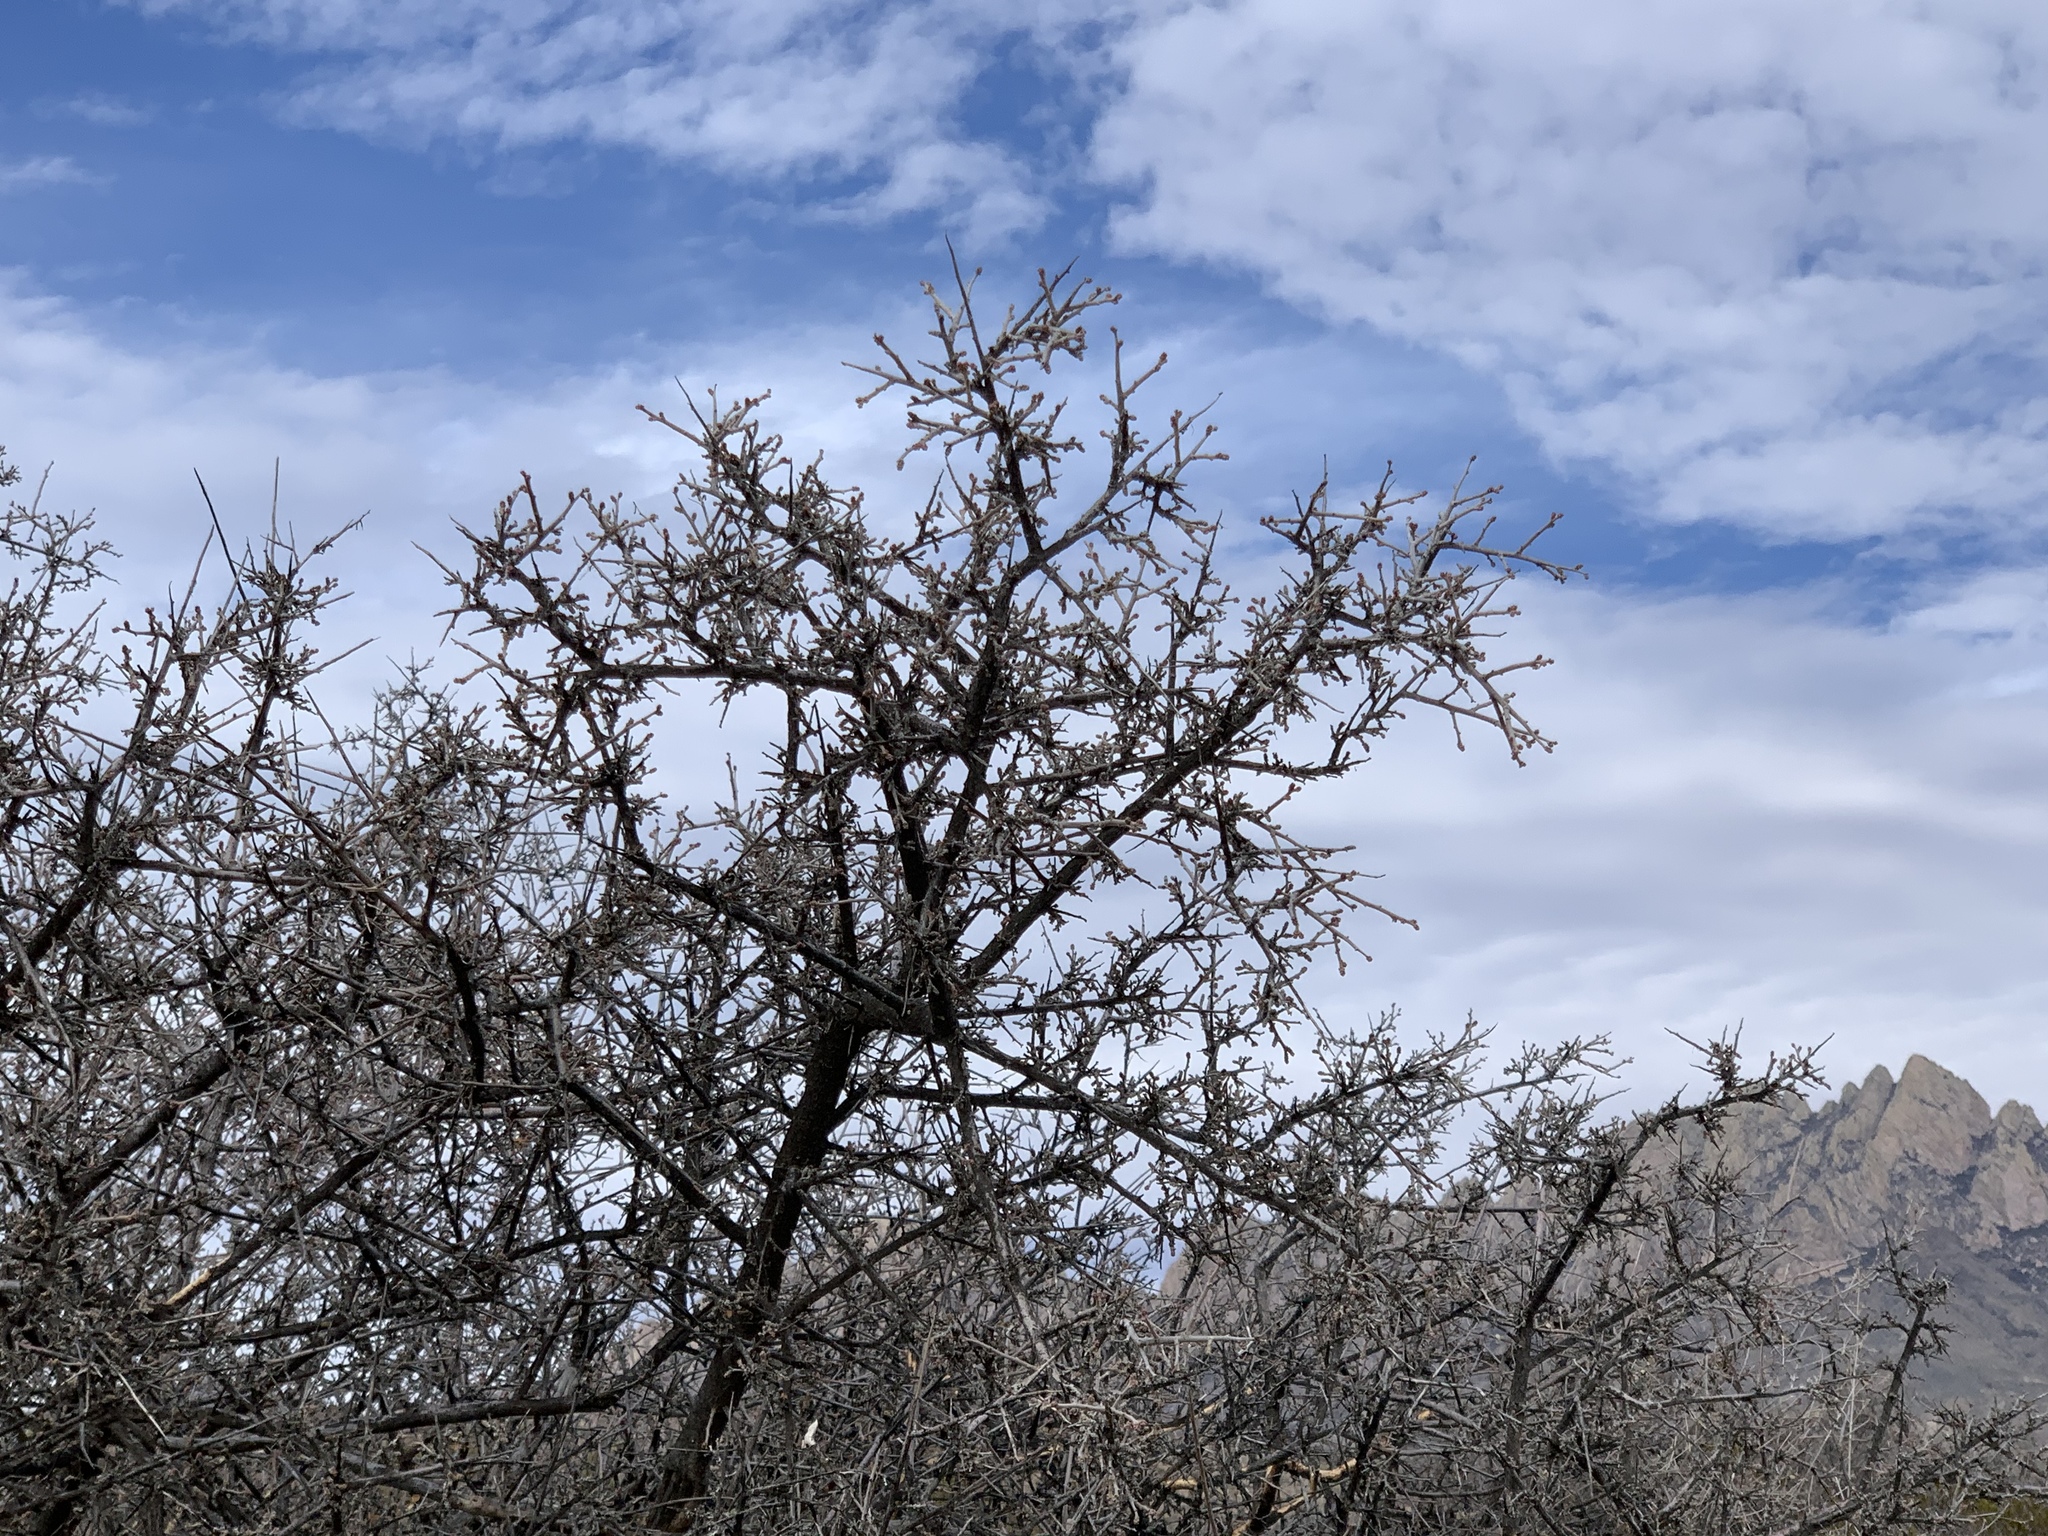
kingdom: Plantae
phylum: Tracheophyta
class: Magnoliopsida
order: Sapindales
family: Anacardiaceae
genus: Rhus
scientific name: Rhus microphylla
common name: Desert sumac
